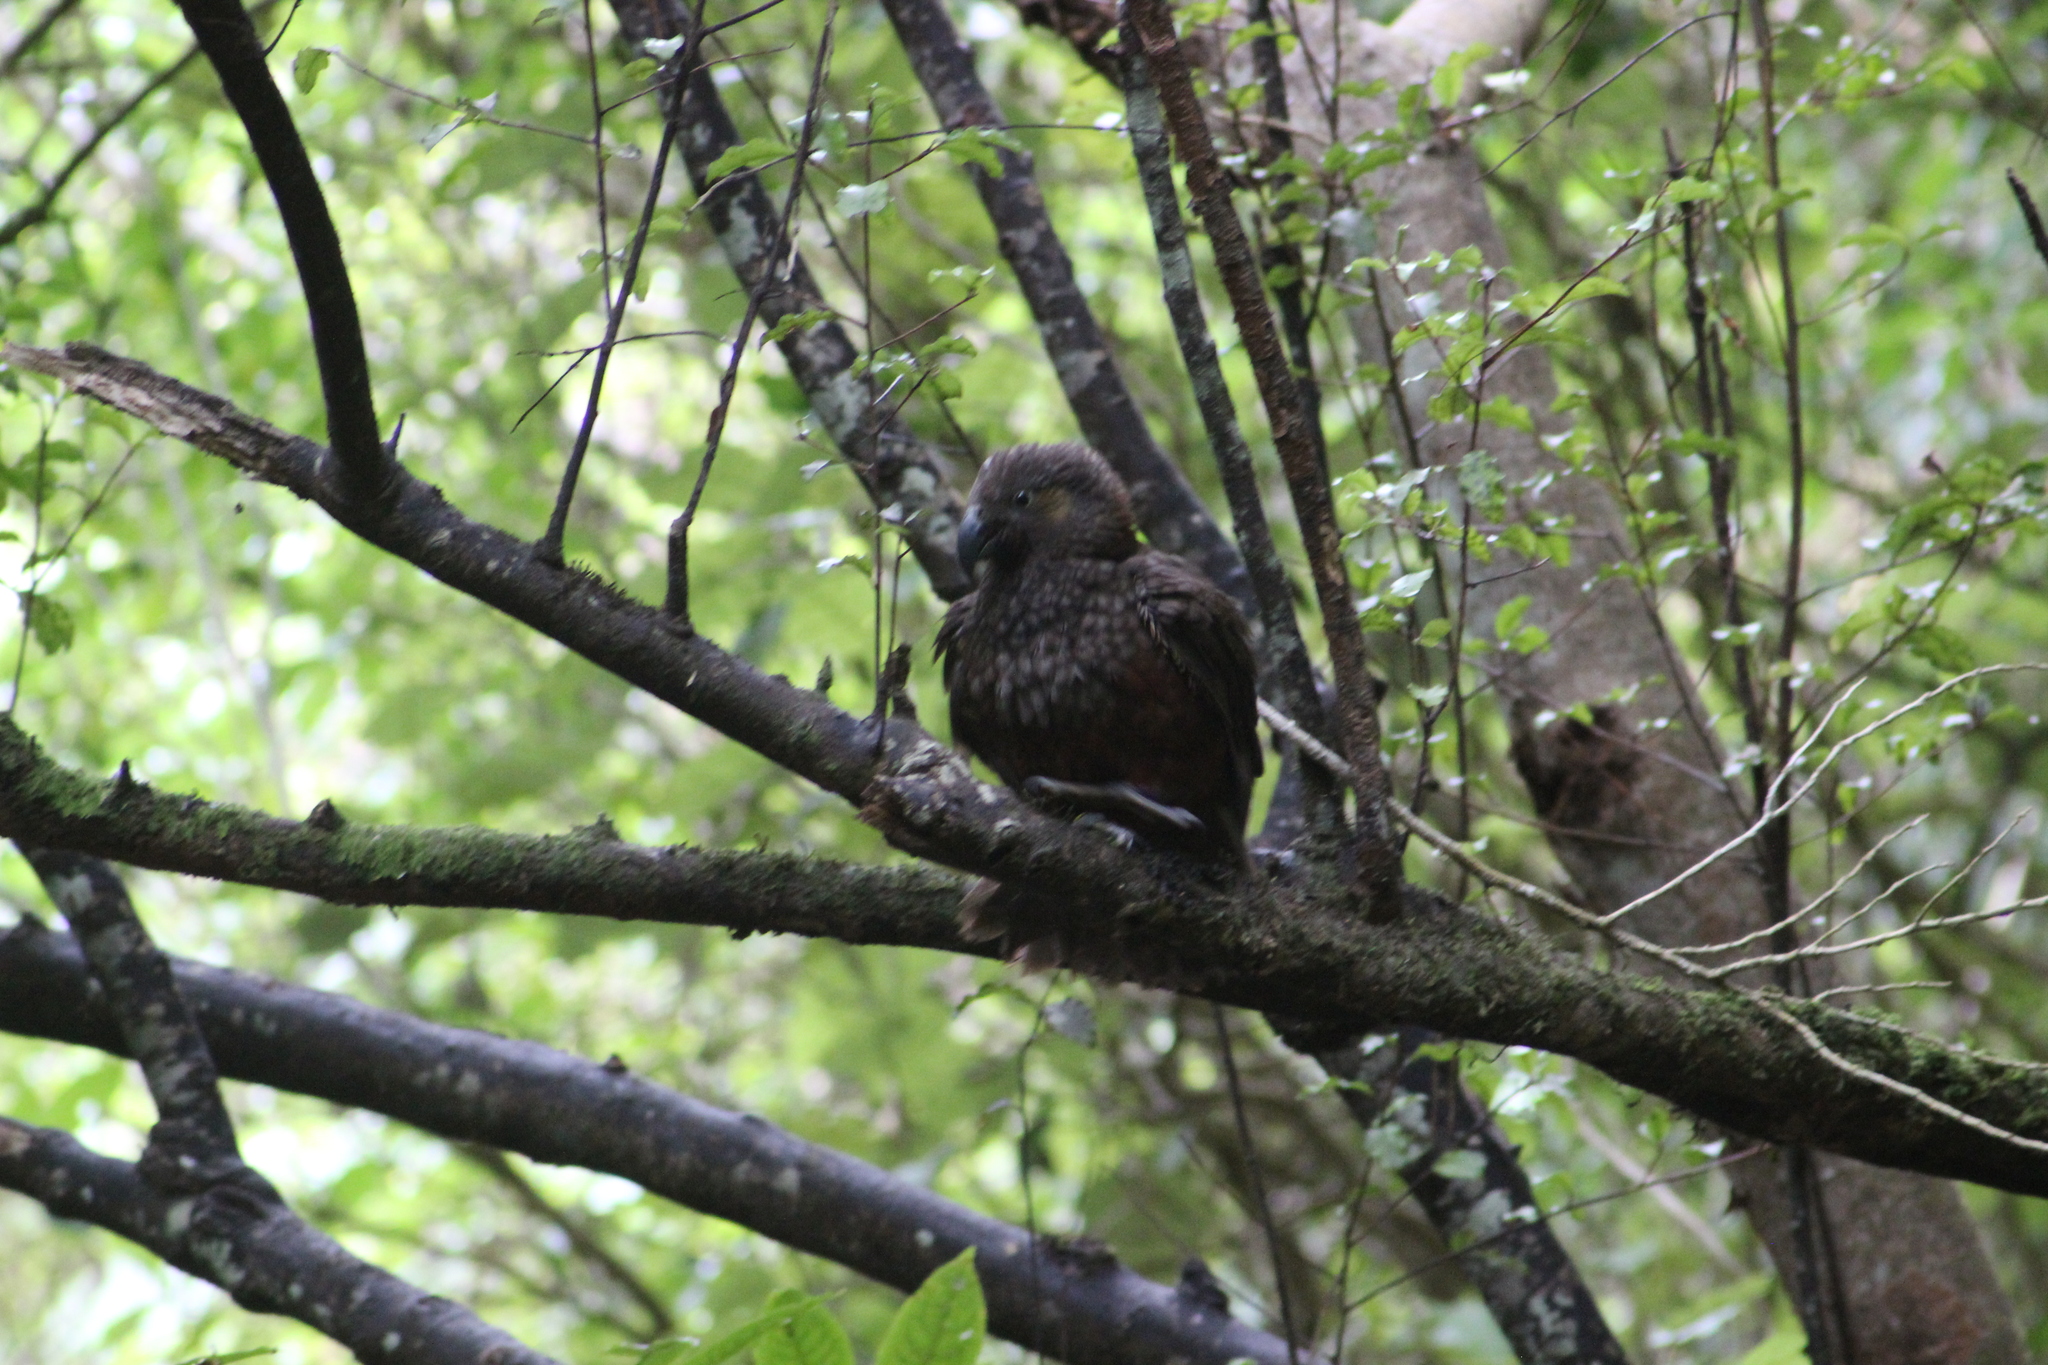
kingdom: Animalia
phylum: Chordata
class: Aves
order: Psittaciformes
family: Psittacidae
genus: Nestor
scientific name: Nestor meridionalis
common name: New zealand kaka
